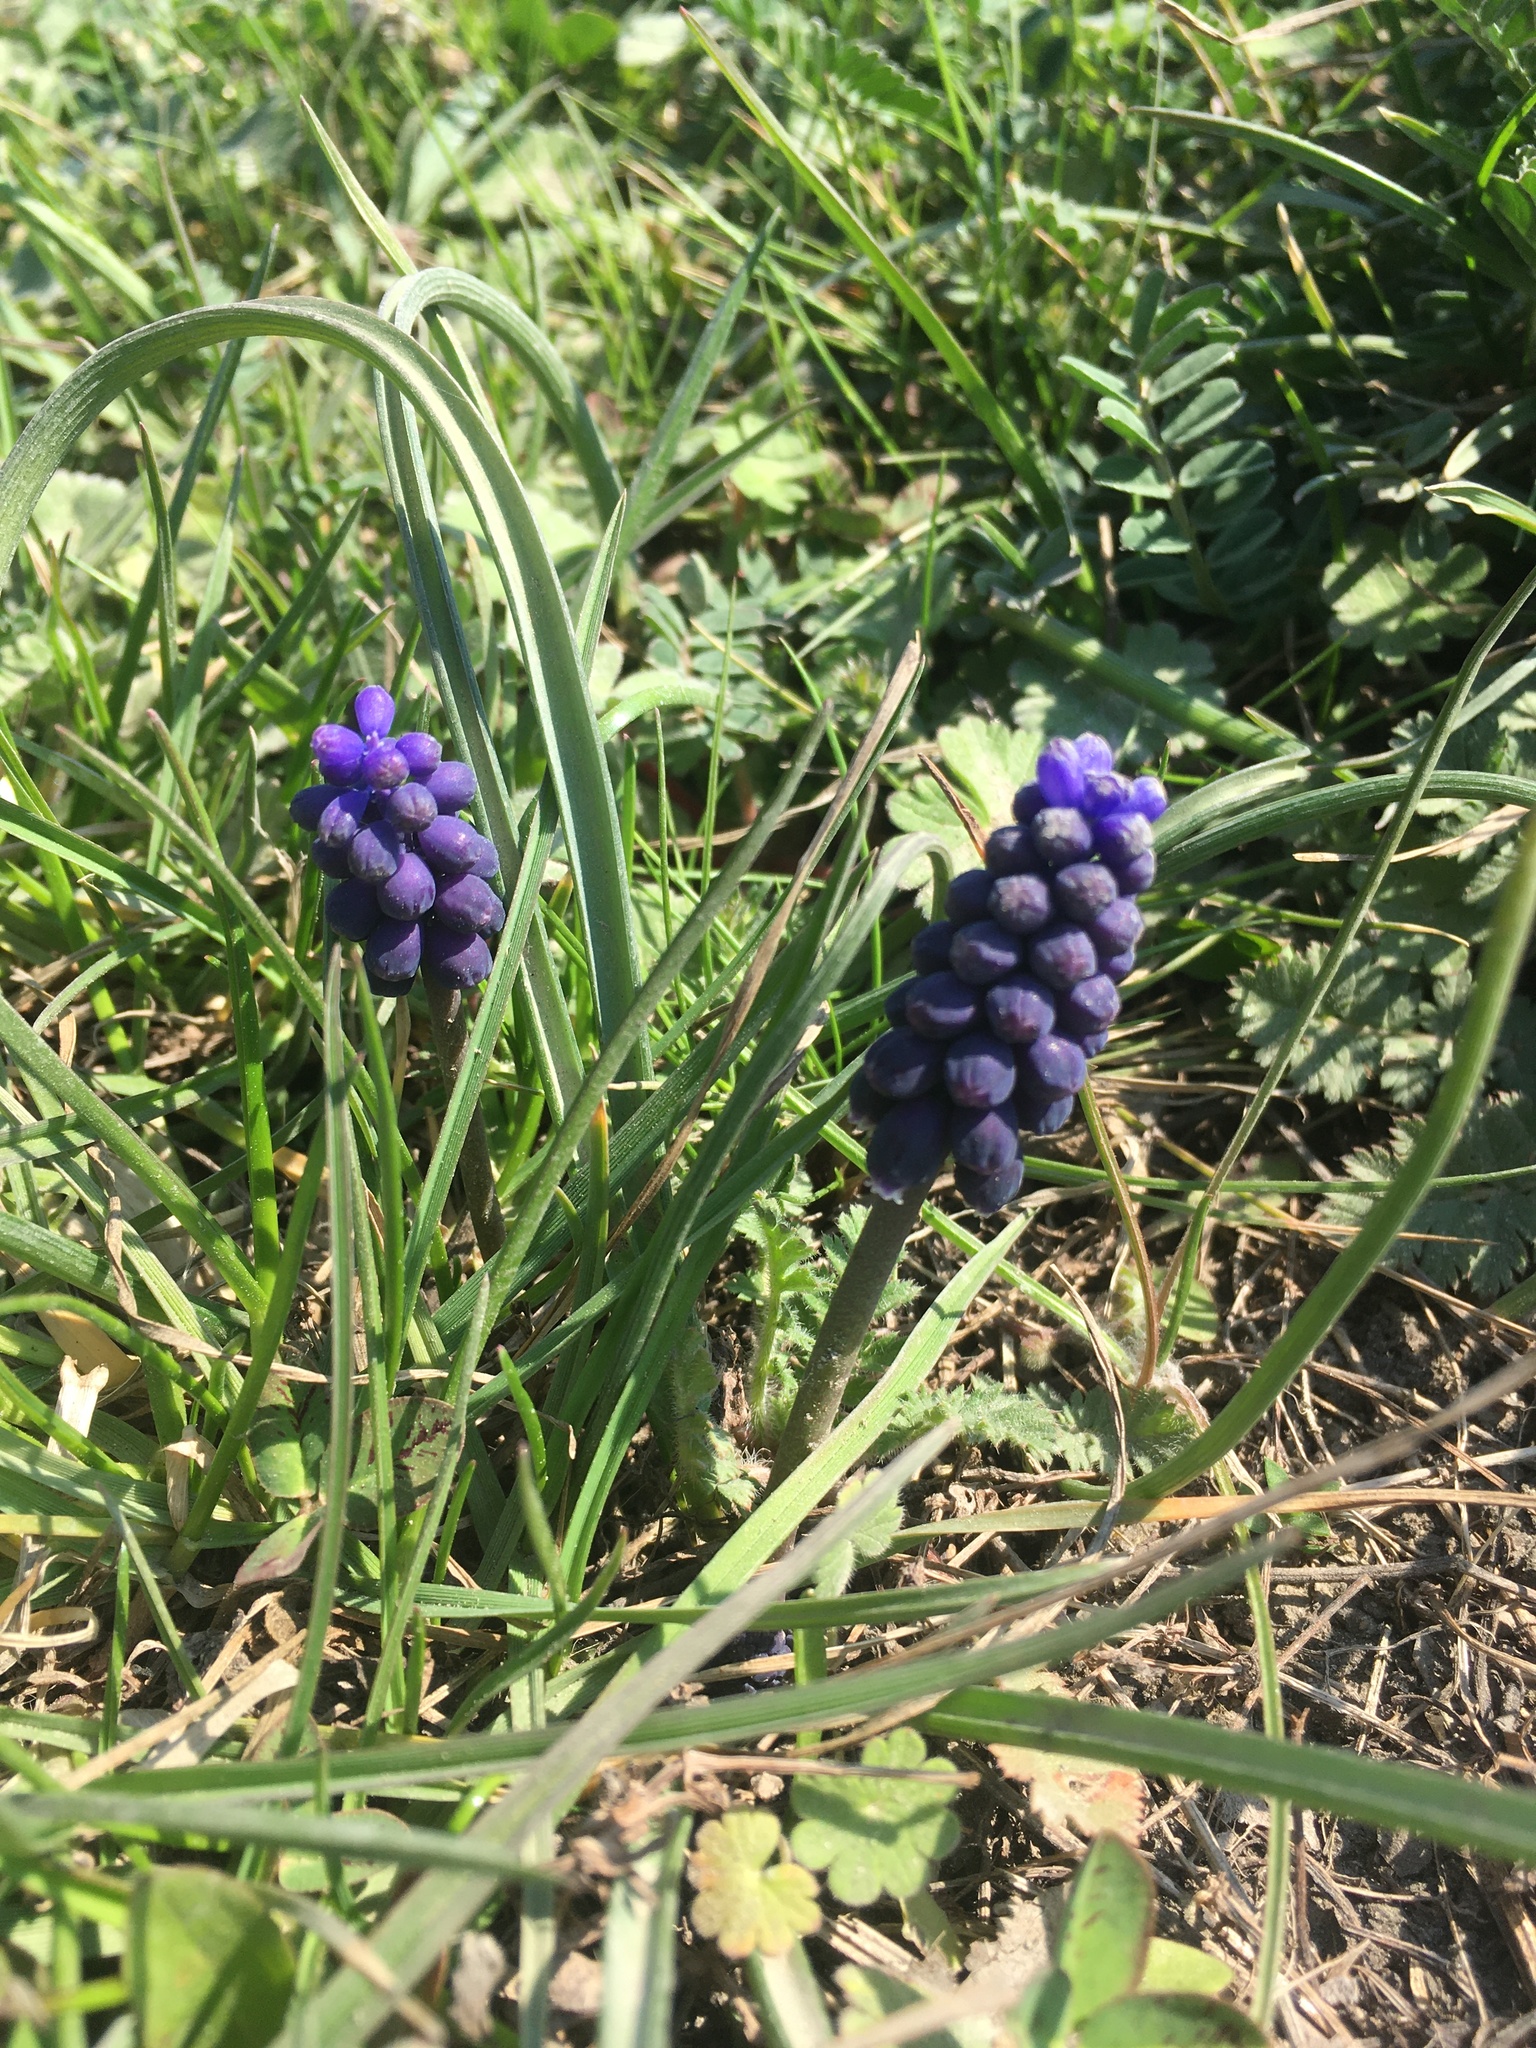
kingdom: Plantae
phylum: Tracheophyta
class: Liliopsida
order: Asparagales
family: Asparagaceae
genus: Muscari
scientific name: Muscari neglectum
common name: Grape-hyacinth
